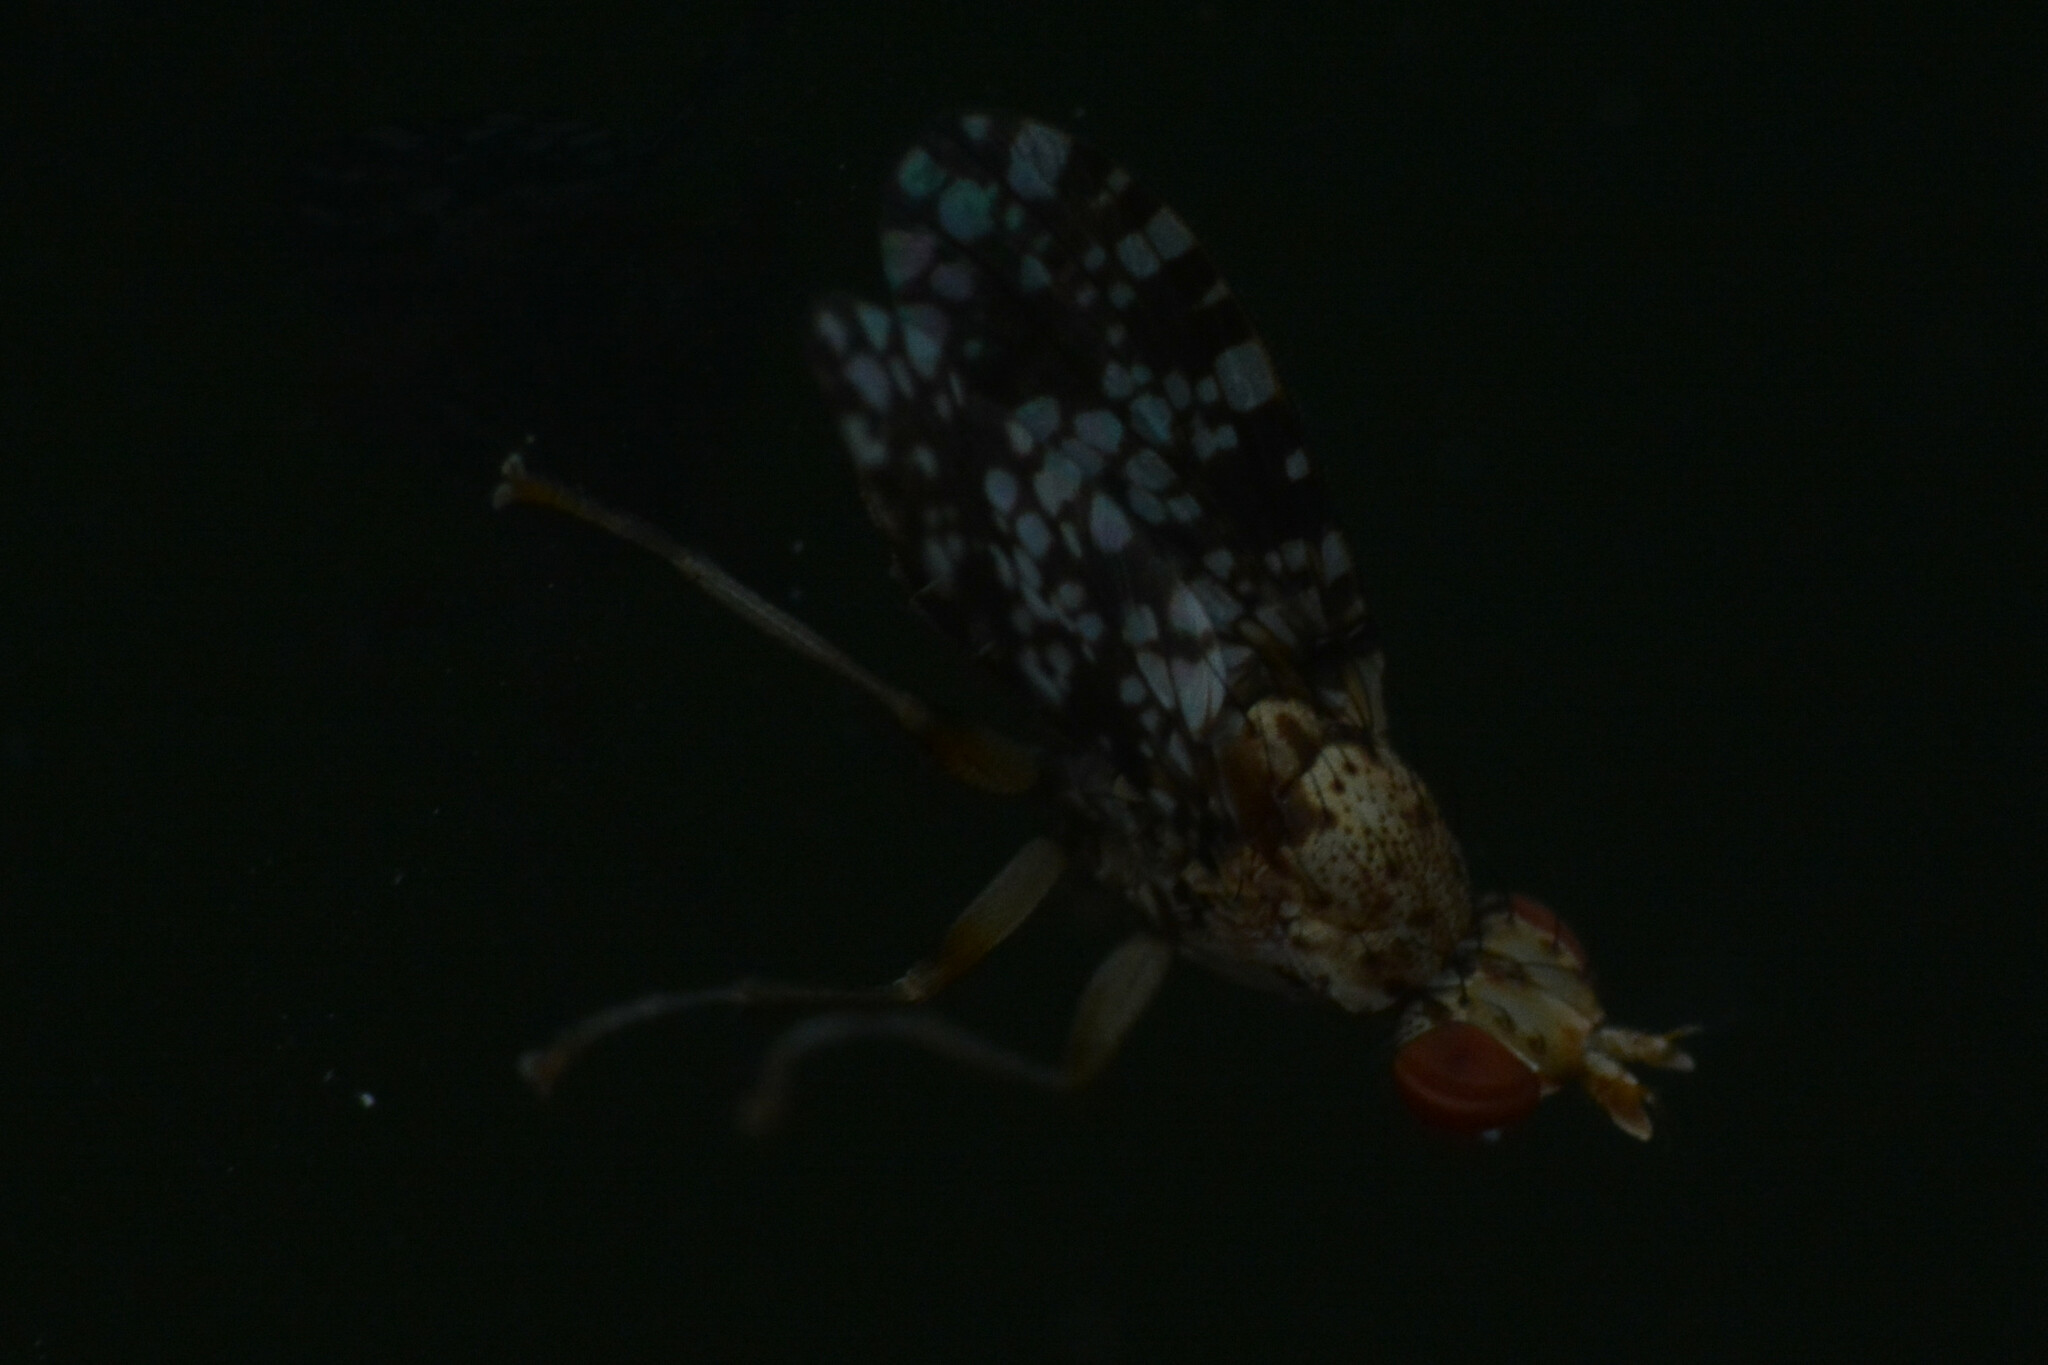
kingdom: Animalia
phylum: Arthropoda
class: Insecta
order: Diptera
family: Sciomyzidae
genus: Trypetoptera
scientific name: Trypetoptera punctulata
